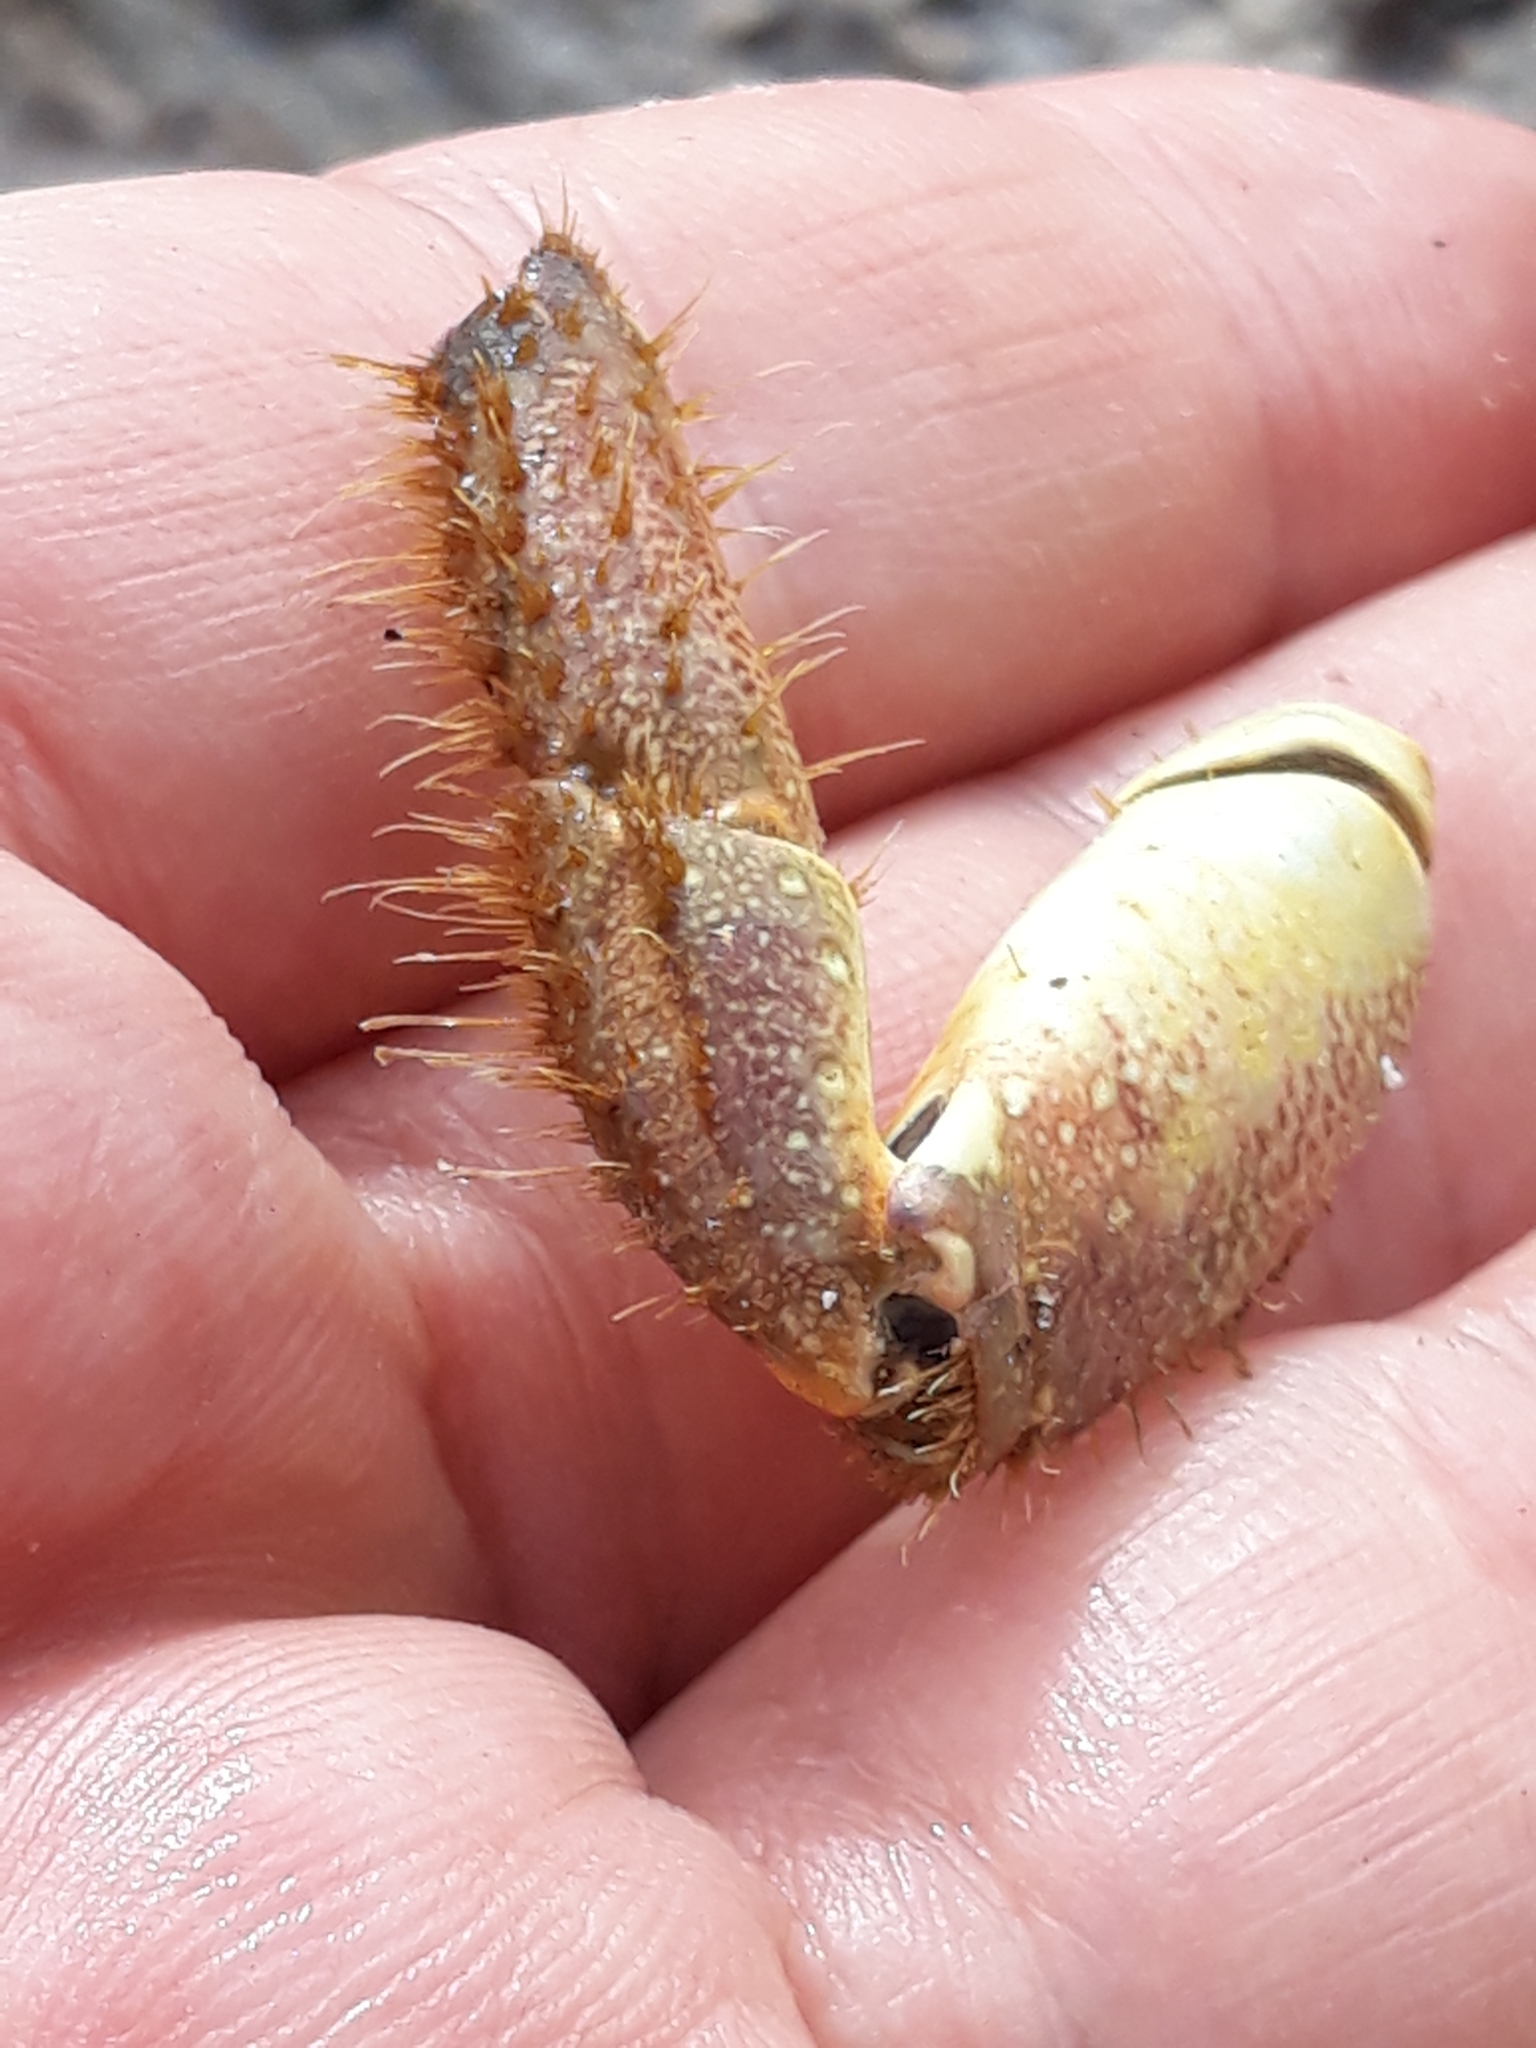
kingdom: Animalia
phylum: Arthropoda
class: Malacostraca
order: Decapoda
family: Eriphiidae
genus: Eriphia
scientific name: Eriphia verrucosa
